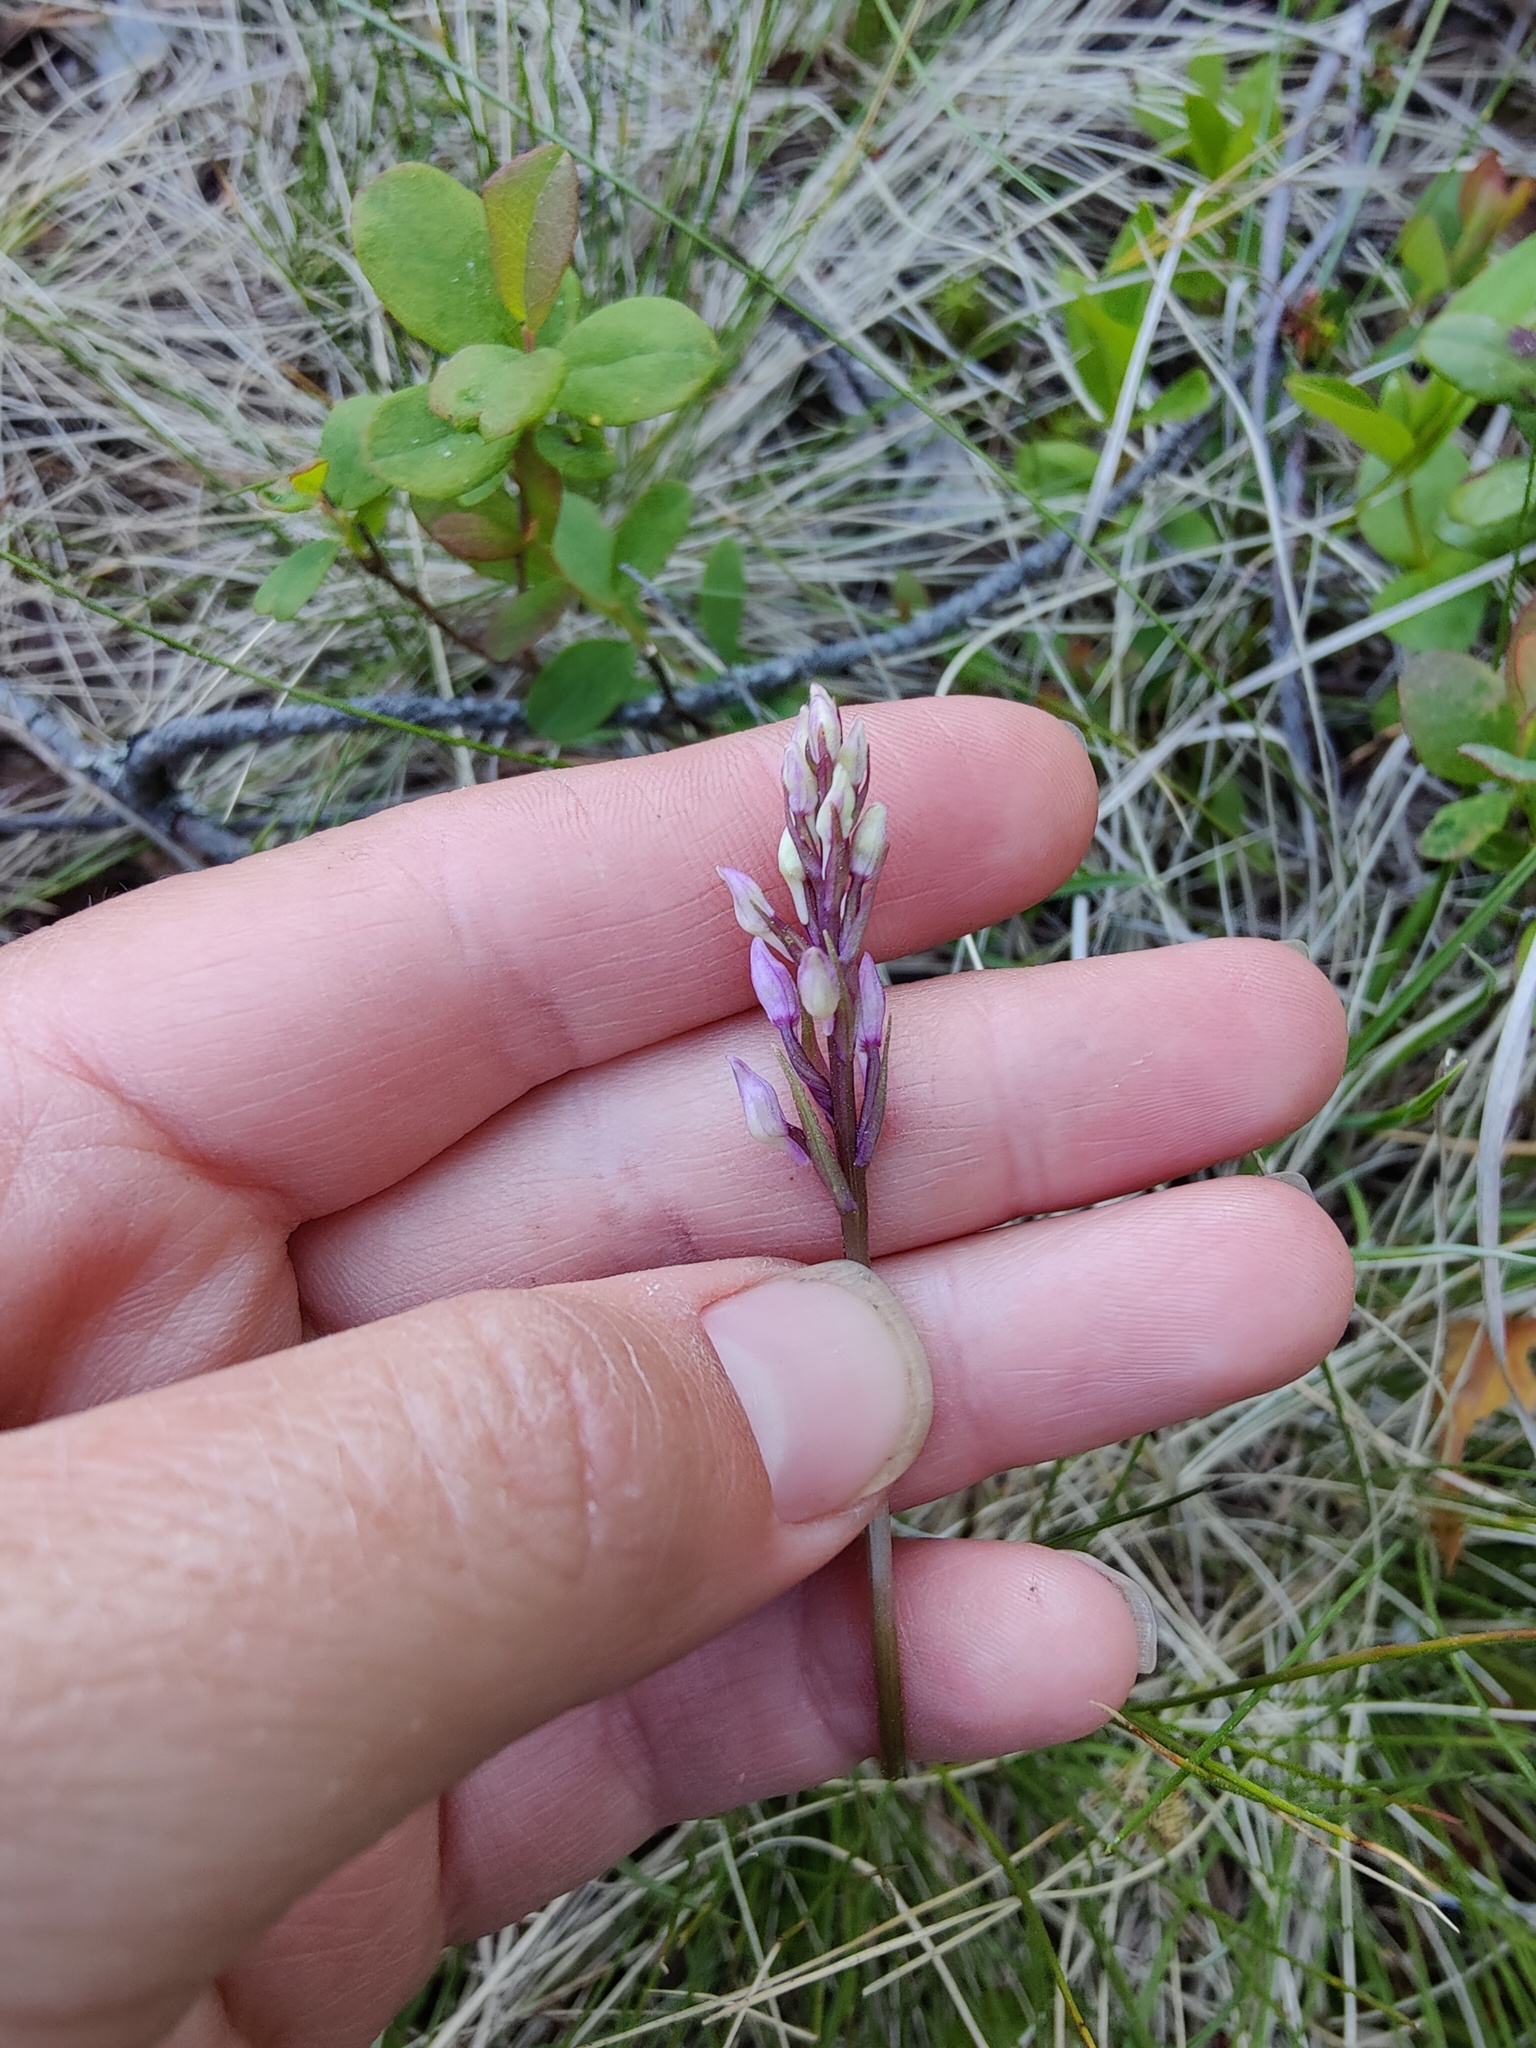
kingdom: Plantae
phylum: Tracheophyta
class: Liliopsida
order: Asparagales
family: Orchidaceae
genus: Dactylorhiza
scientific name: Dactylorhiza maculata
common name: Heath spotted-orchid
